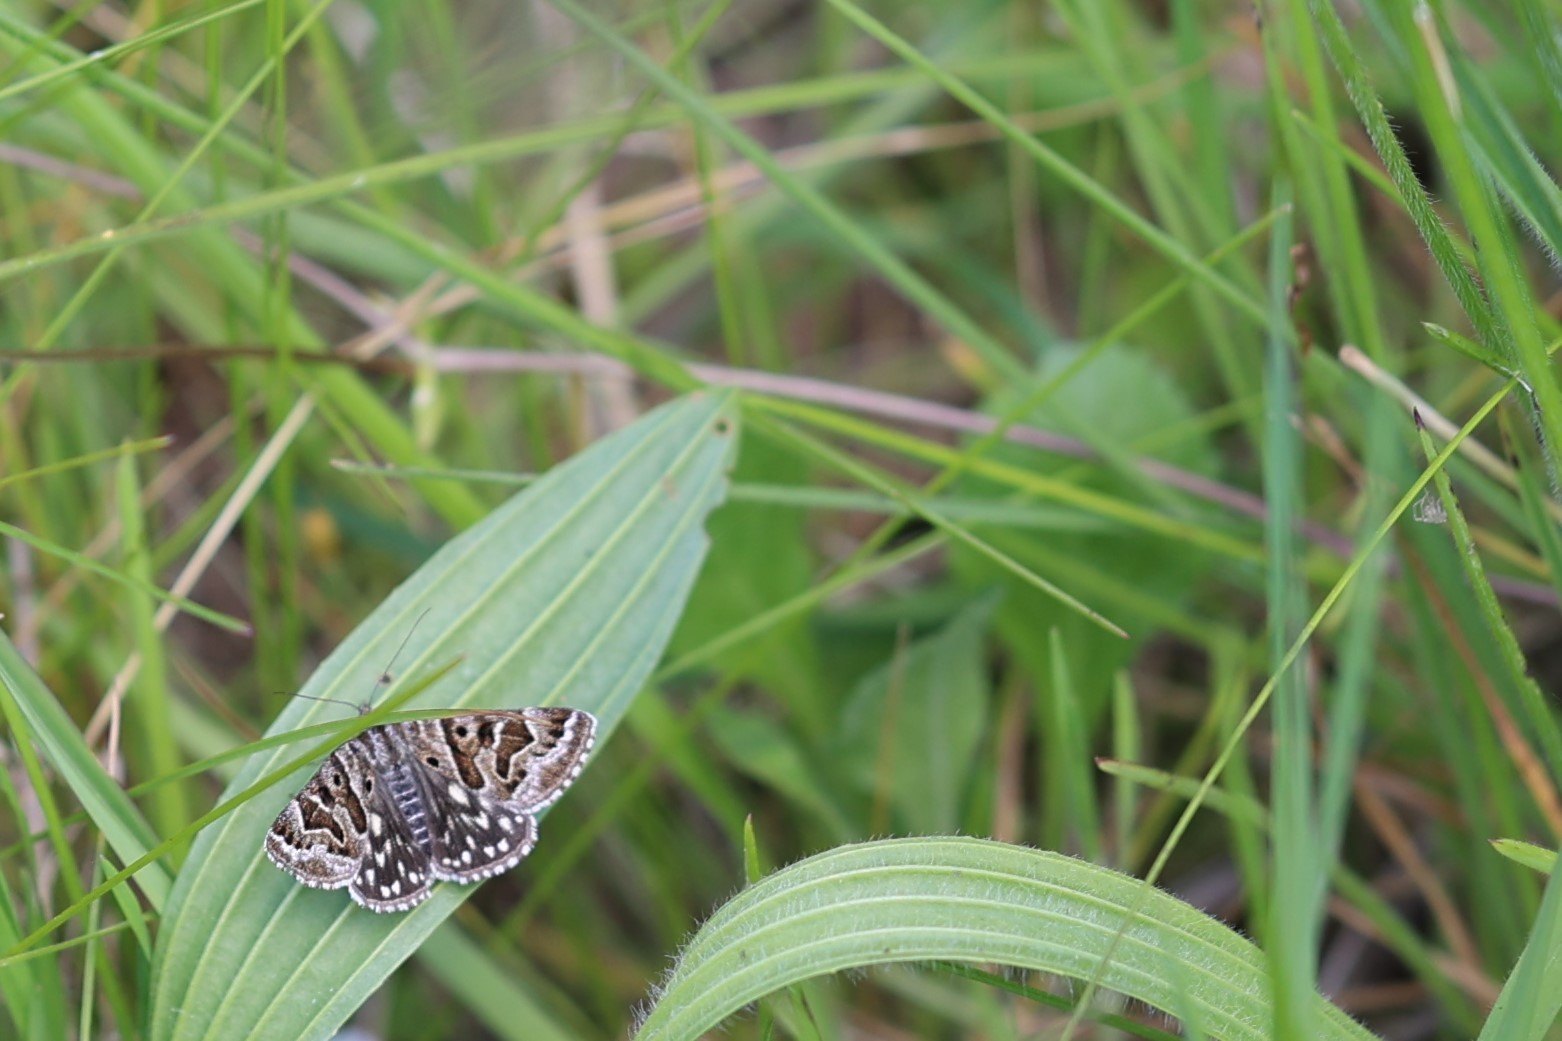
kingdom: Animalia
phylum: Arthropoda
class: Insecta
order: Lepidoptera
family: Erebidae
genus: Callistege
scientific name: Callistege mi
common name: Mother shipton
